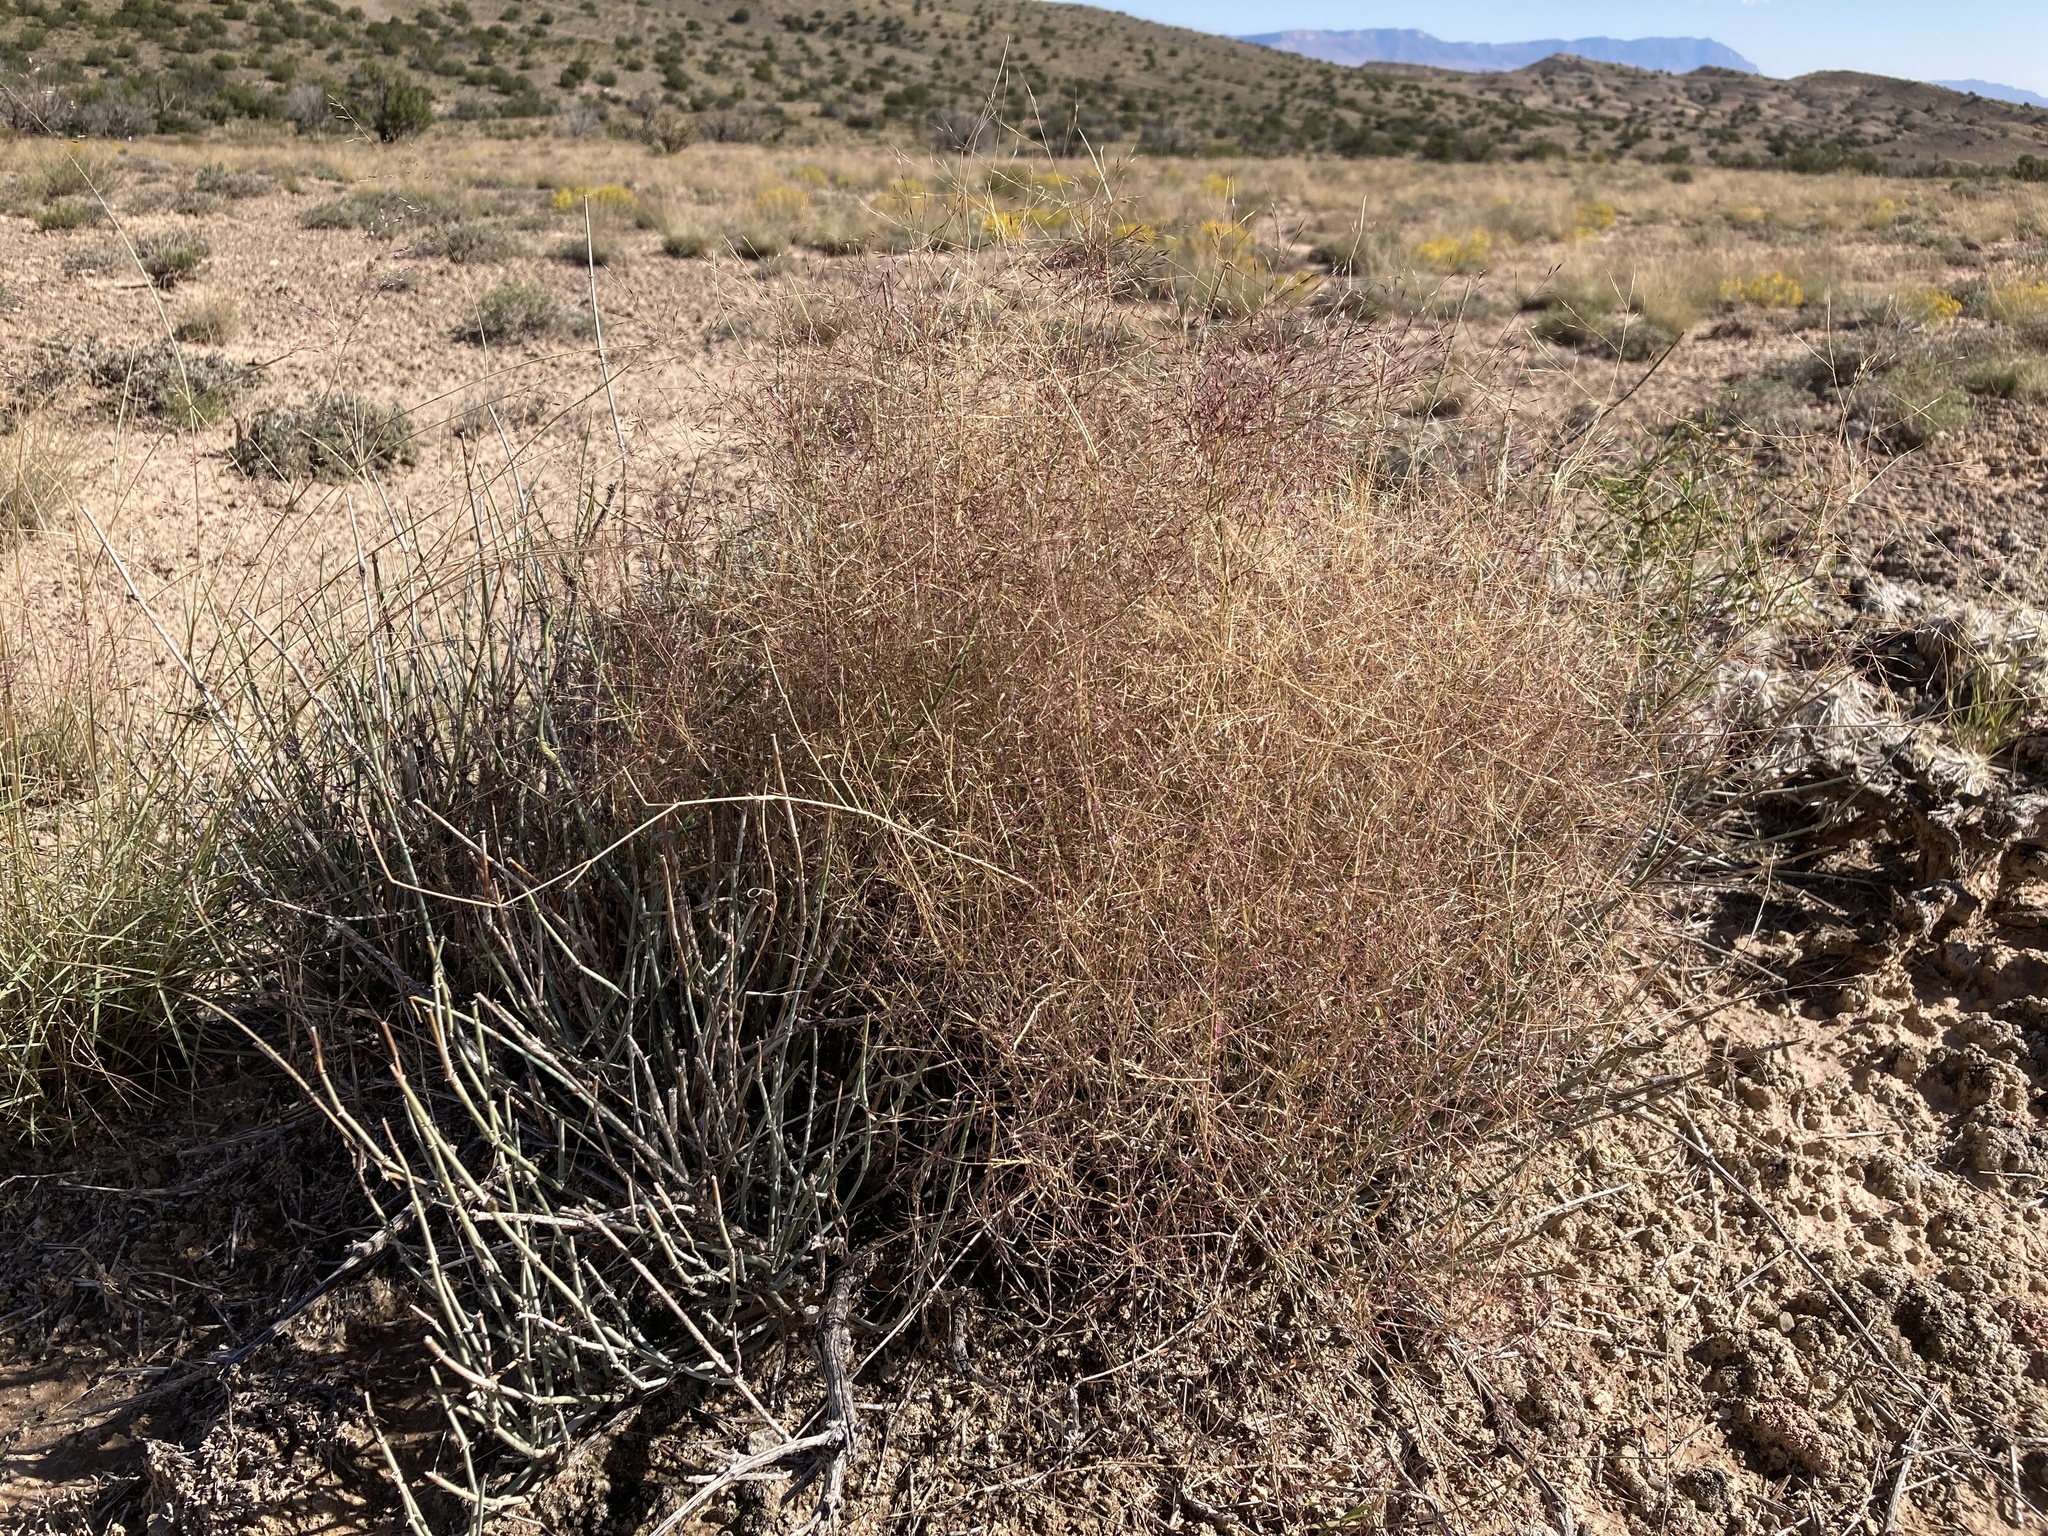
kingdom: Plantae
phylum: Tracheophyta
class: Liliopsida
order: Poales
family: Poaceae
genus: Muhlenbergia
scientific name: Muhlenbergia porteri
